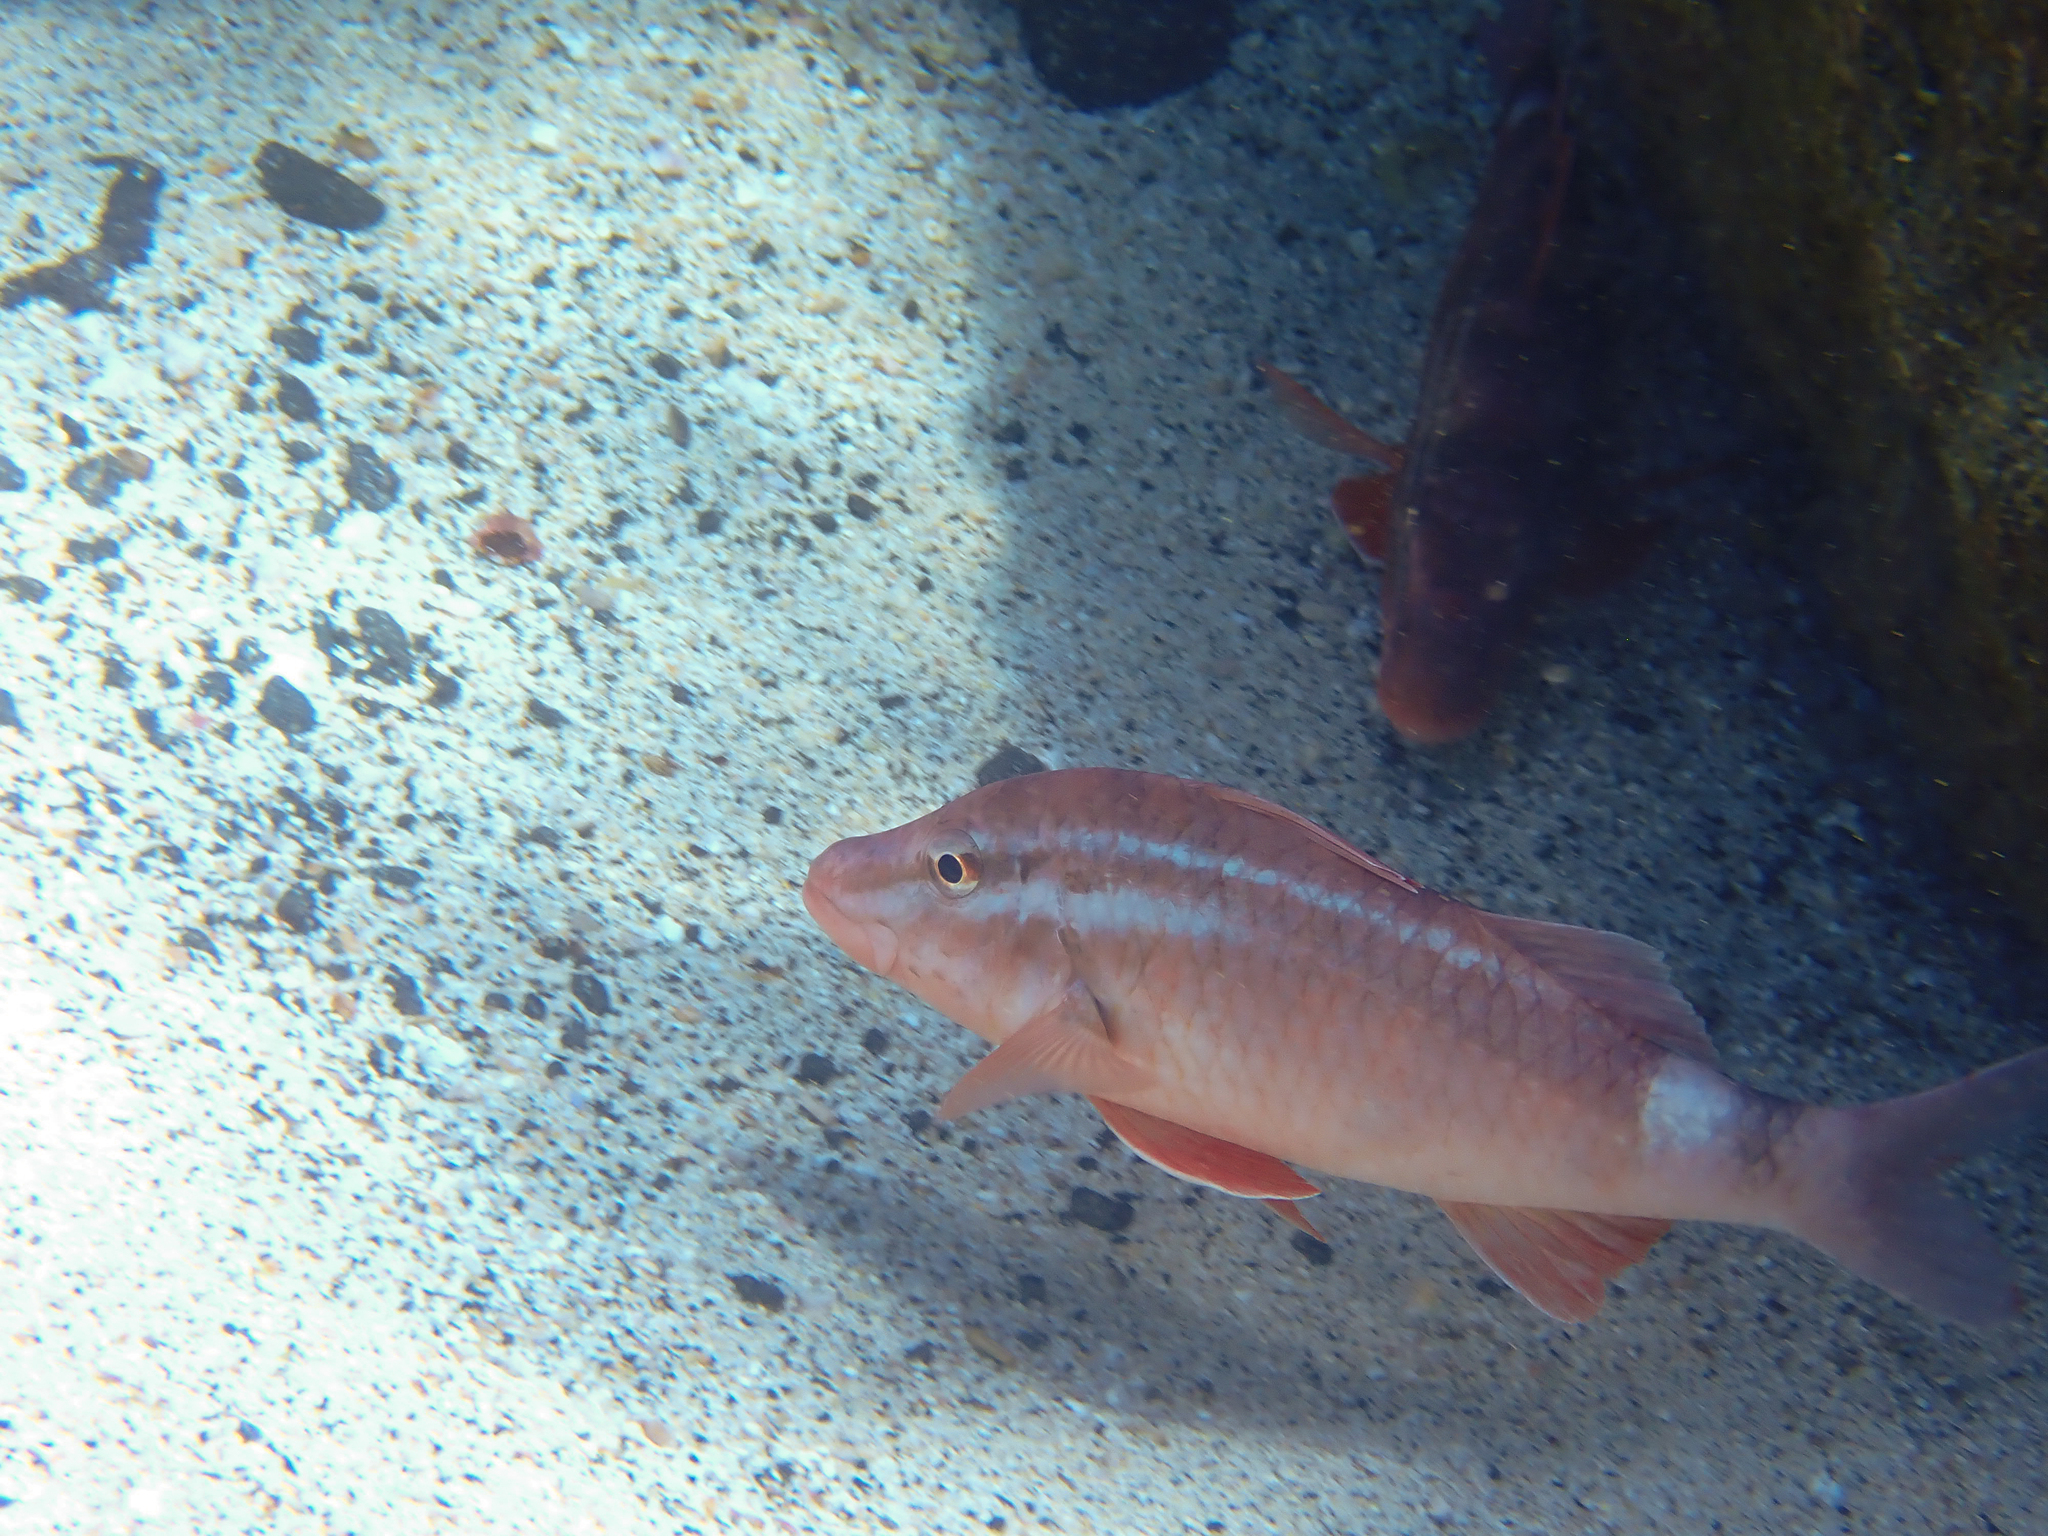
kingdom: Animalia
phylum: Chordata
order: Perciformes
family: Mullidae
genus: Parupeneus
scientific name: Parupeneus porphyreus
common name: Whitesaddle goatfish
